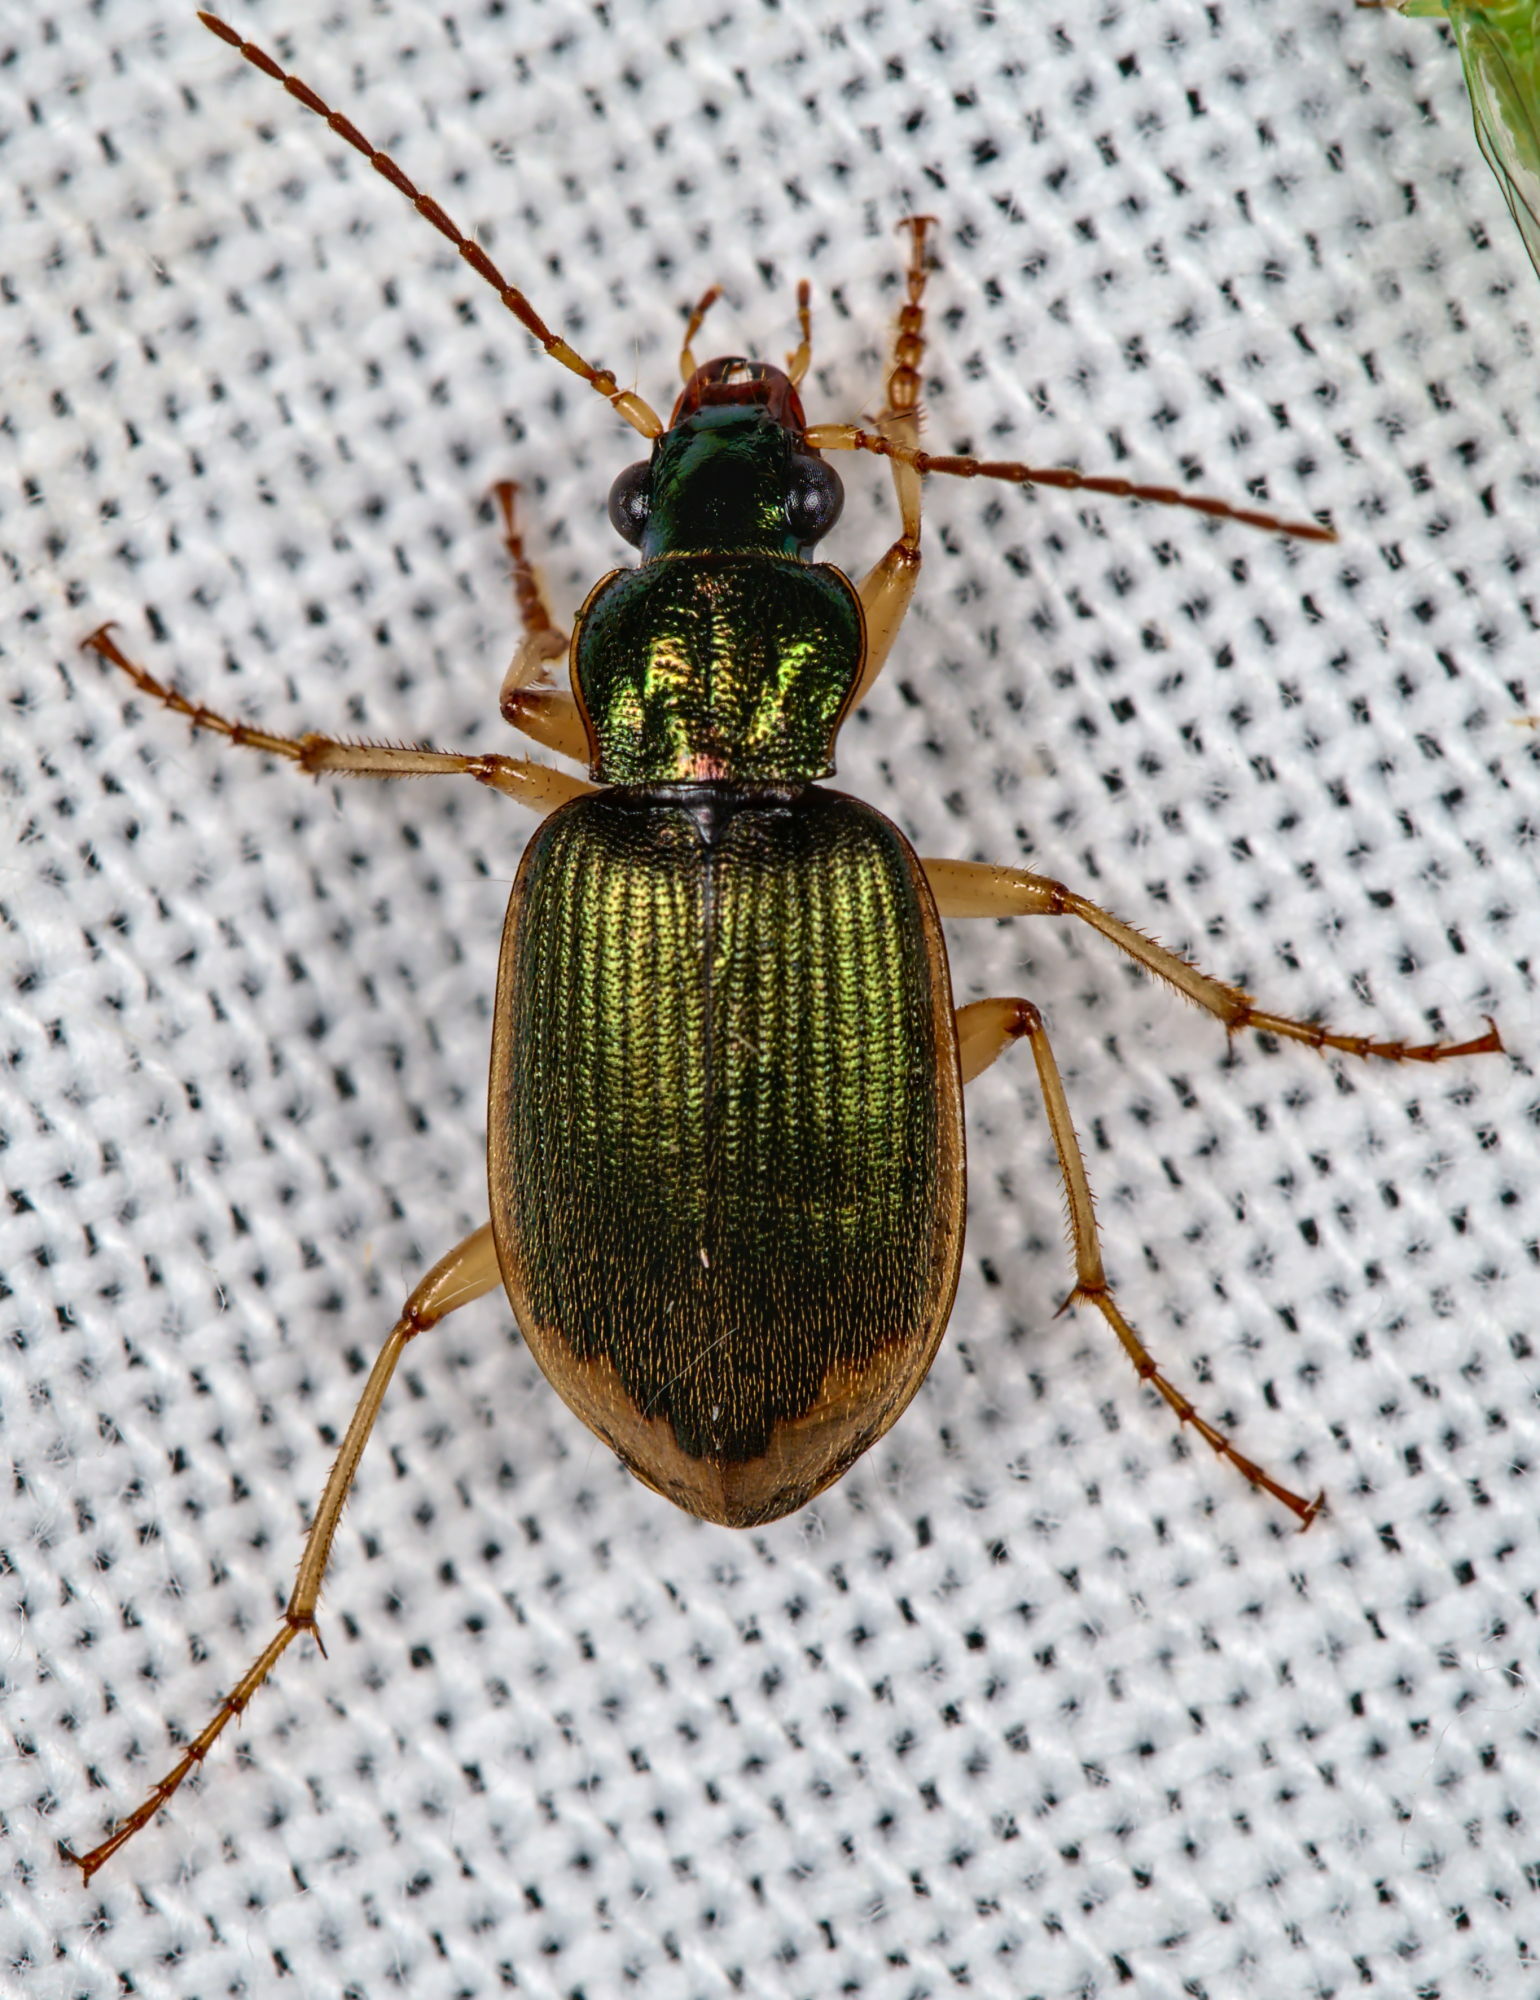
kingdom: Animalia
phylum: Arthropoda
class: Insecta
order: Coleoptera
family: Carabidae
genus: Chlaenius
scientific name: Chlaenius vestitus
